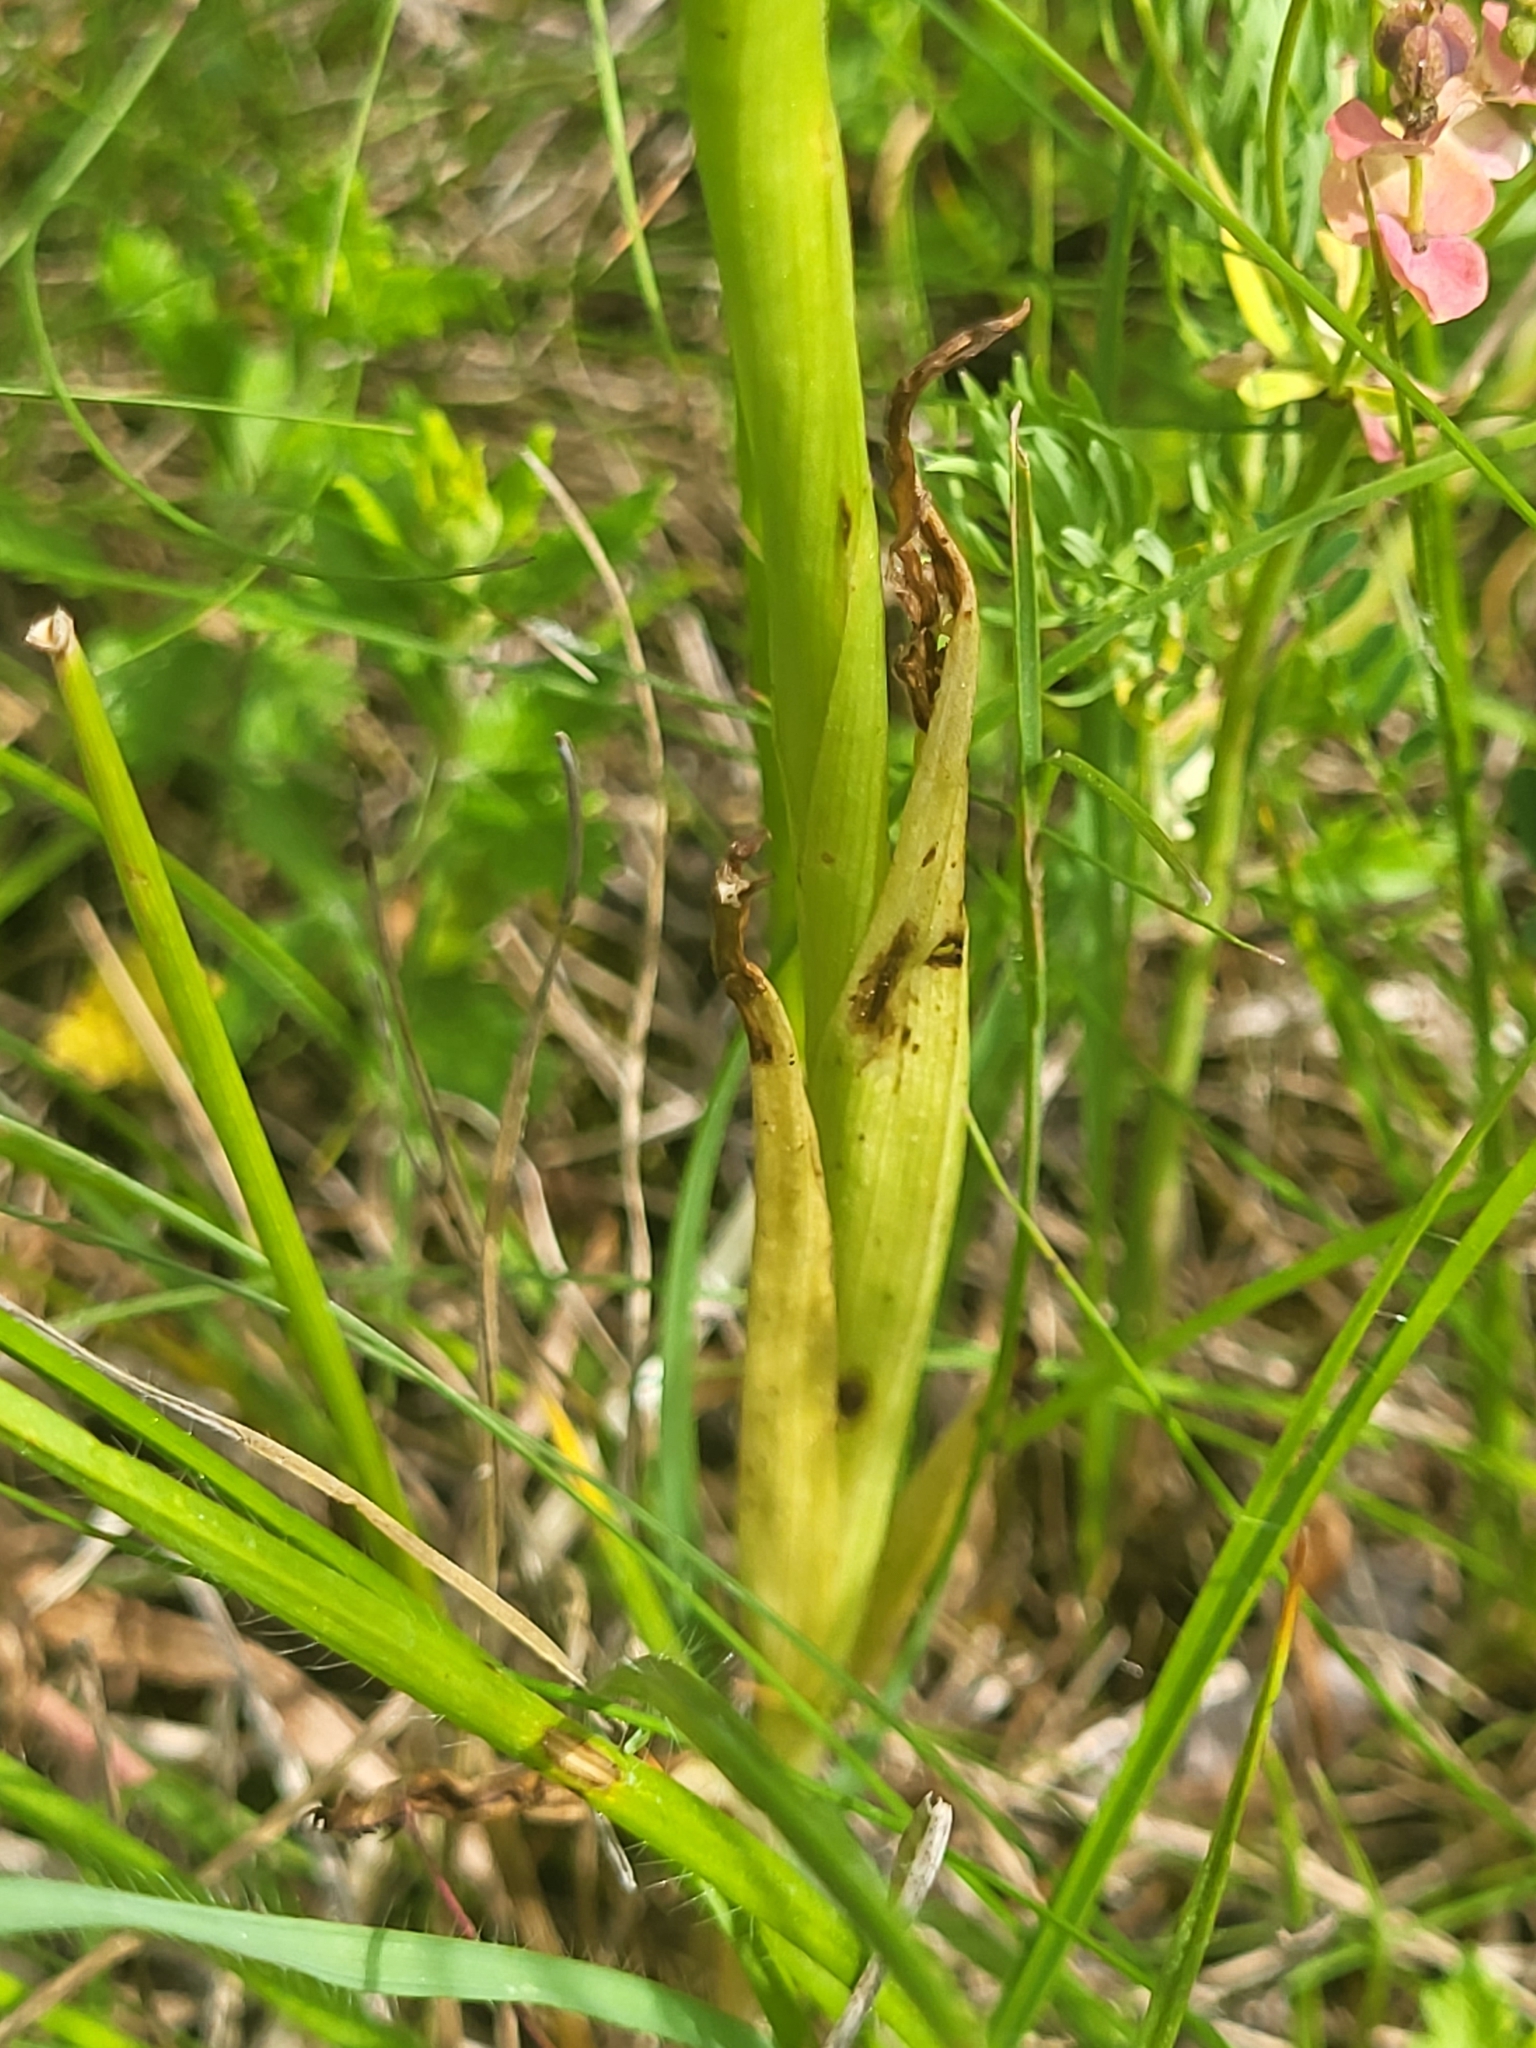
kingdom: Plantae
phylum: Tracheophyta
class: Liliopsida
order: Asparagales
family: Orchidaceae
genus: Anacamptis
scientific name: Anacamptis coriophora
